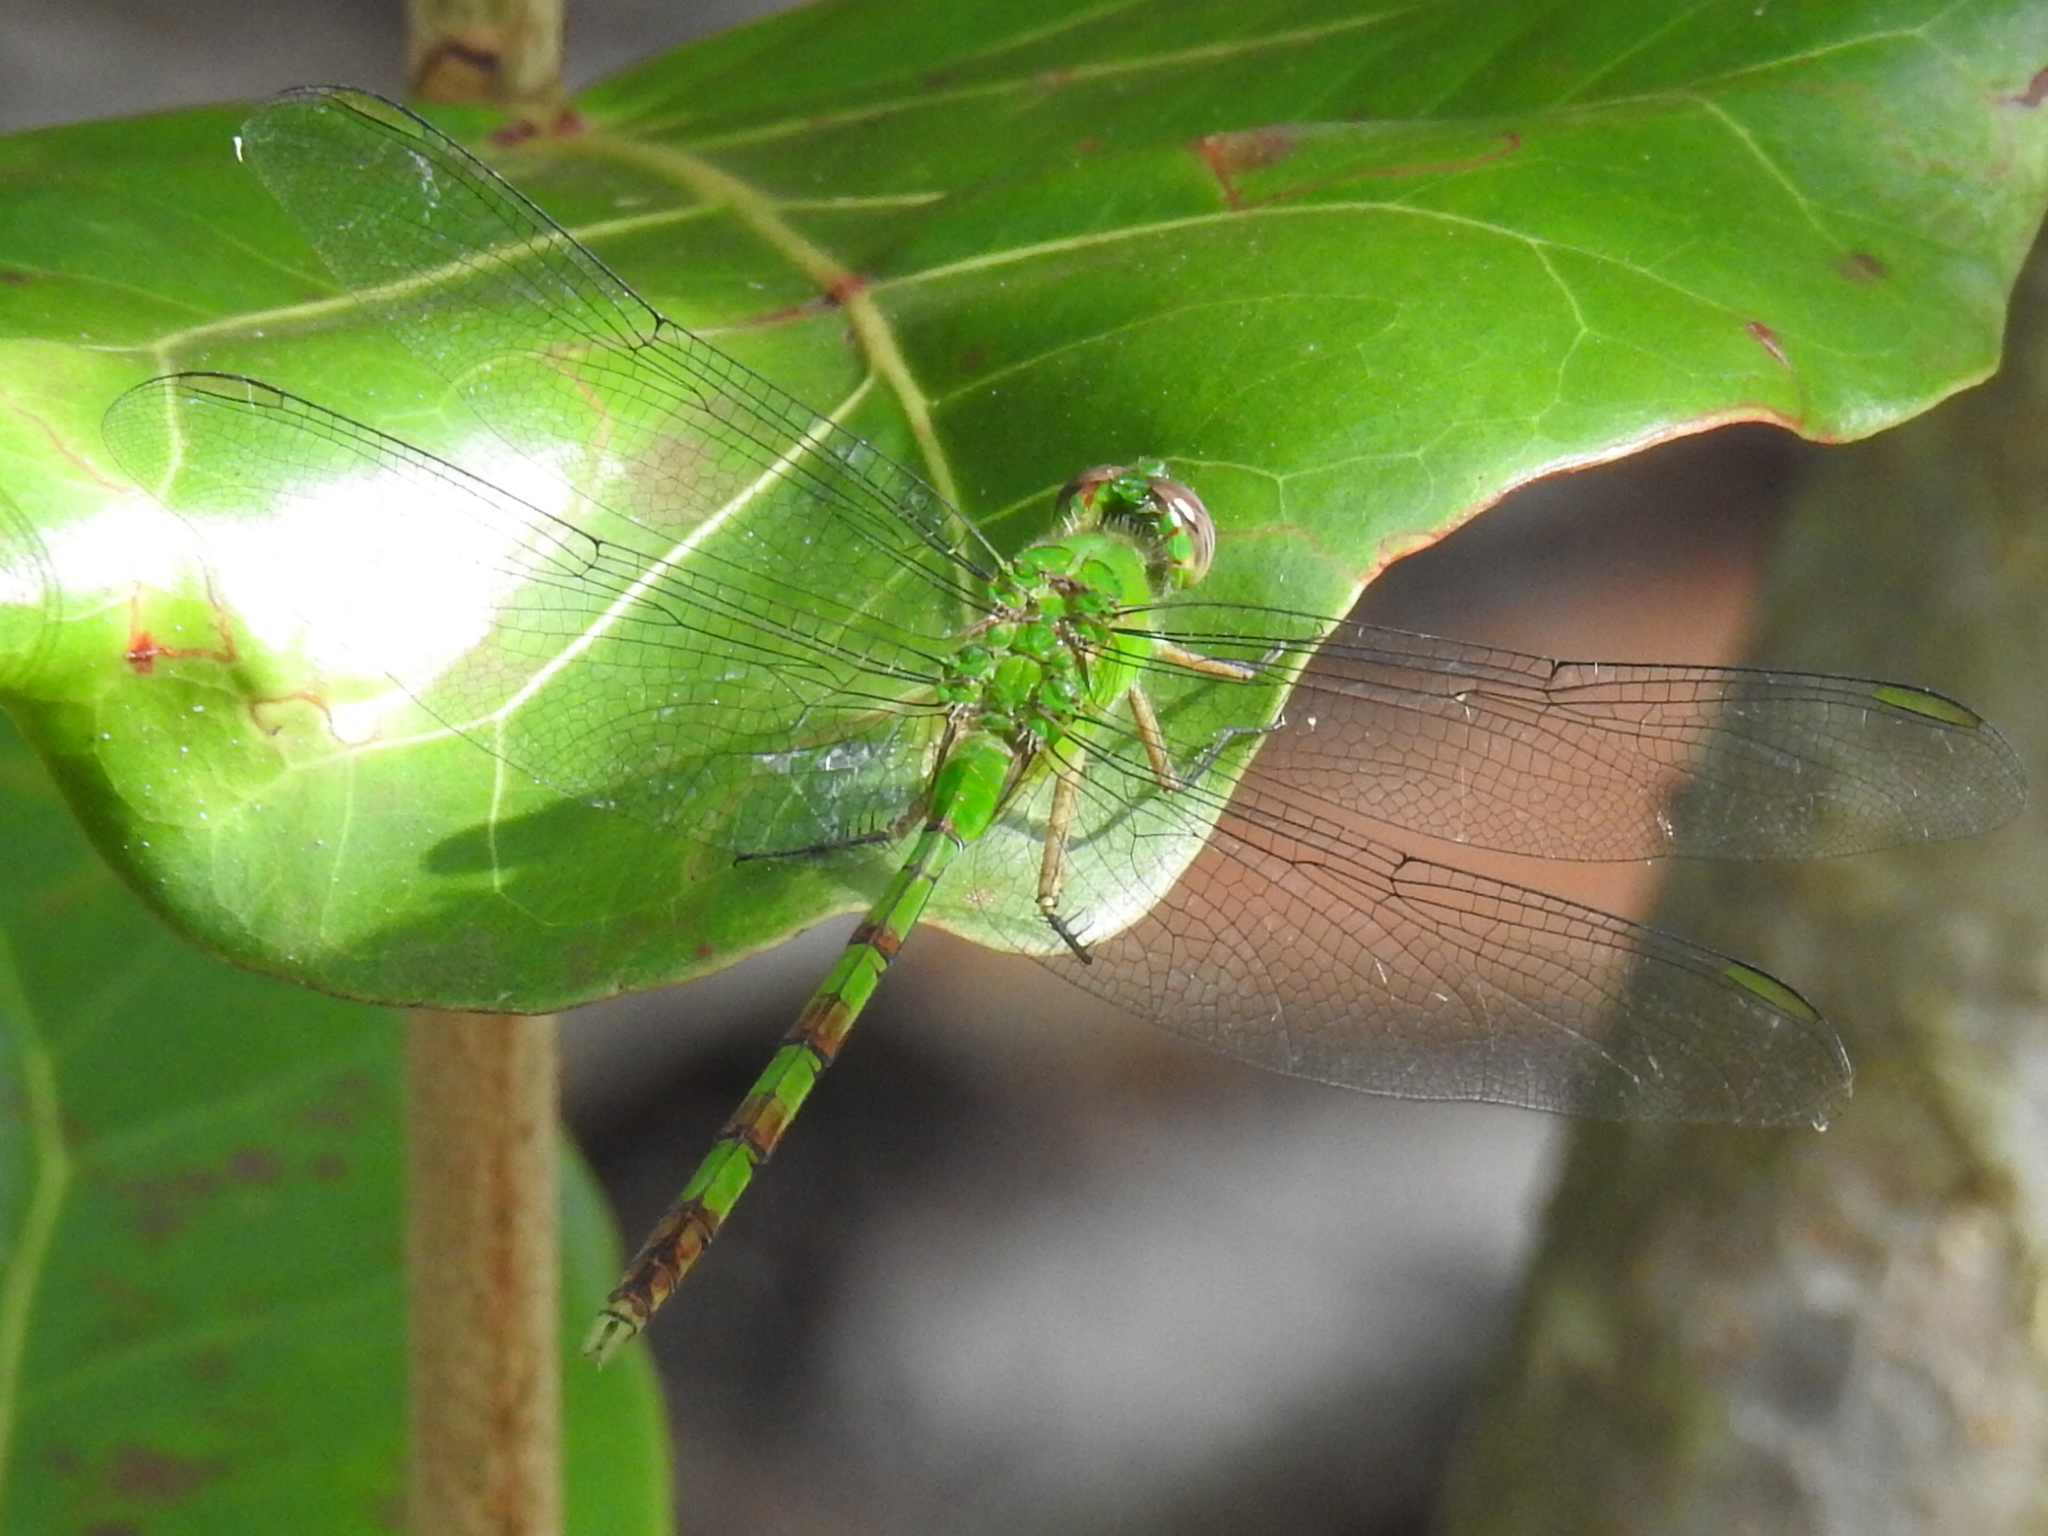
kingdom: Animalia
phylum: Arthropoda
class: Insecta
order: Odonata
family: Libellulidae
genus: Erythemis
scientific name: Erythemis vesiculosa
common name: Great pondhawk
